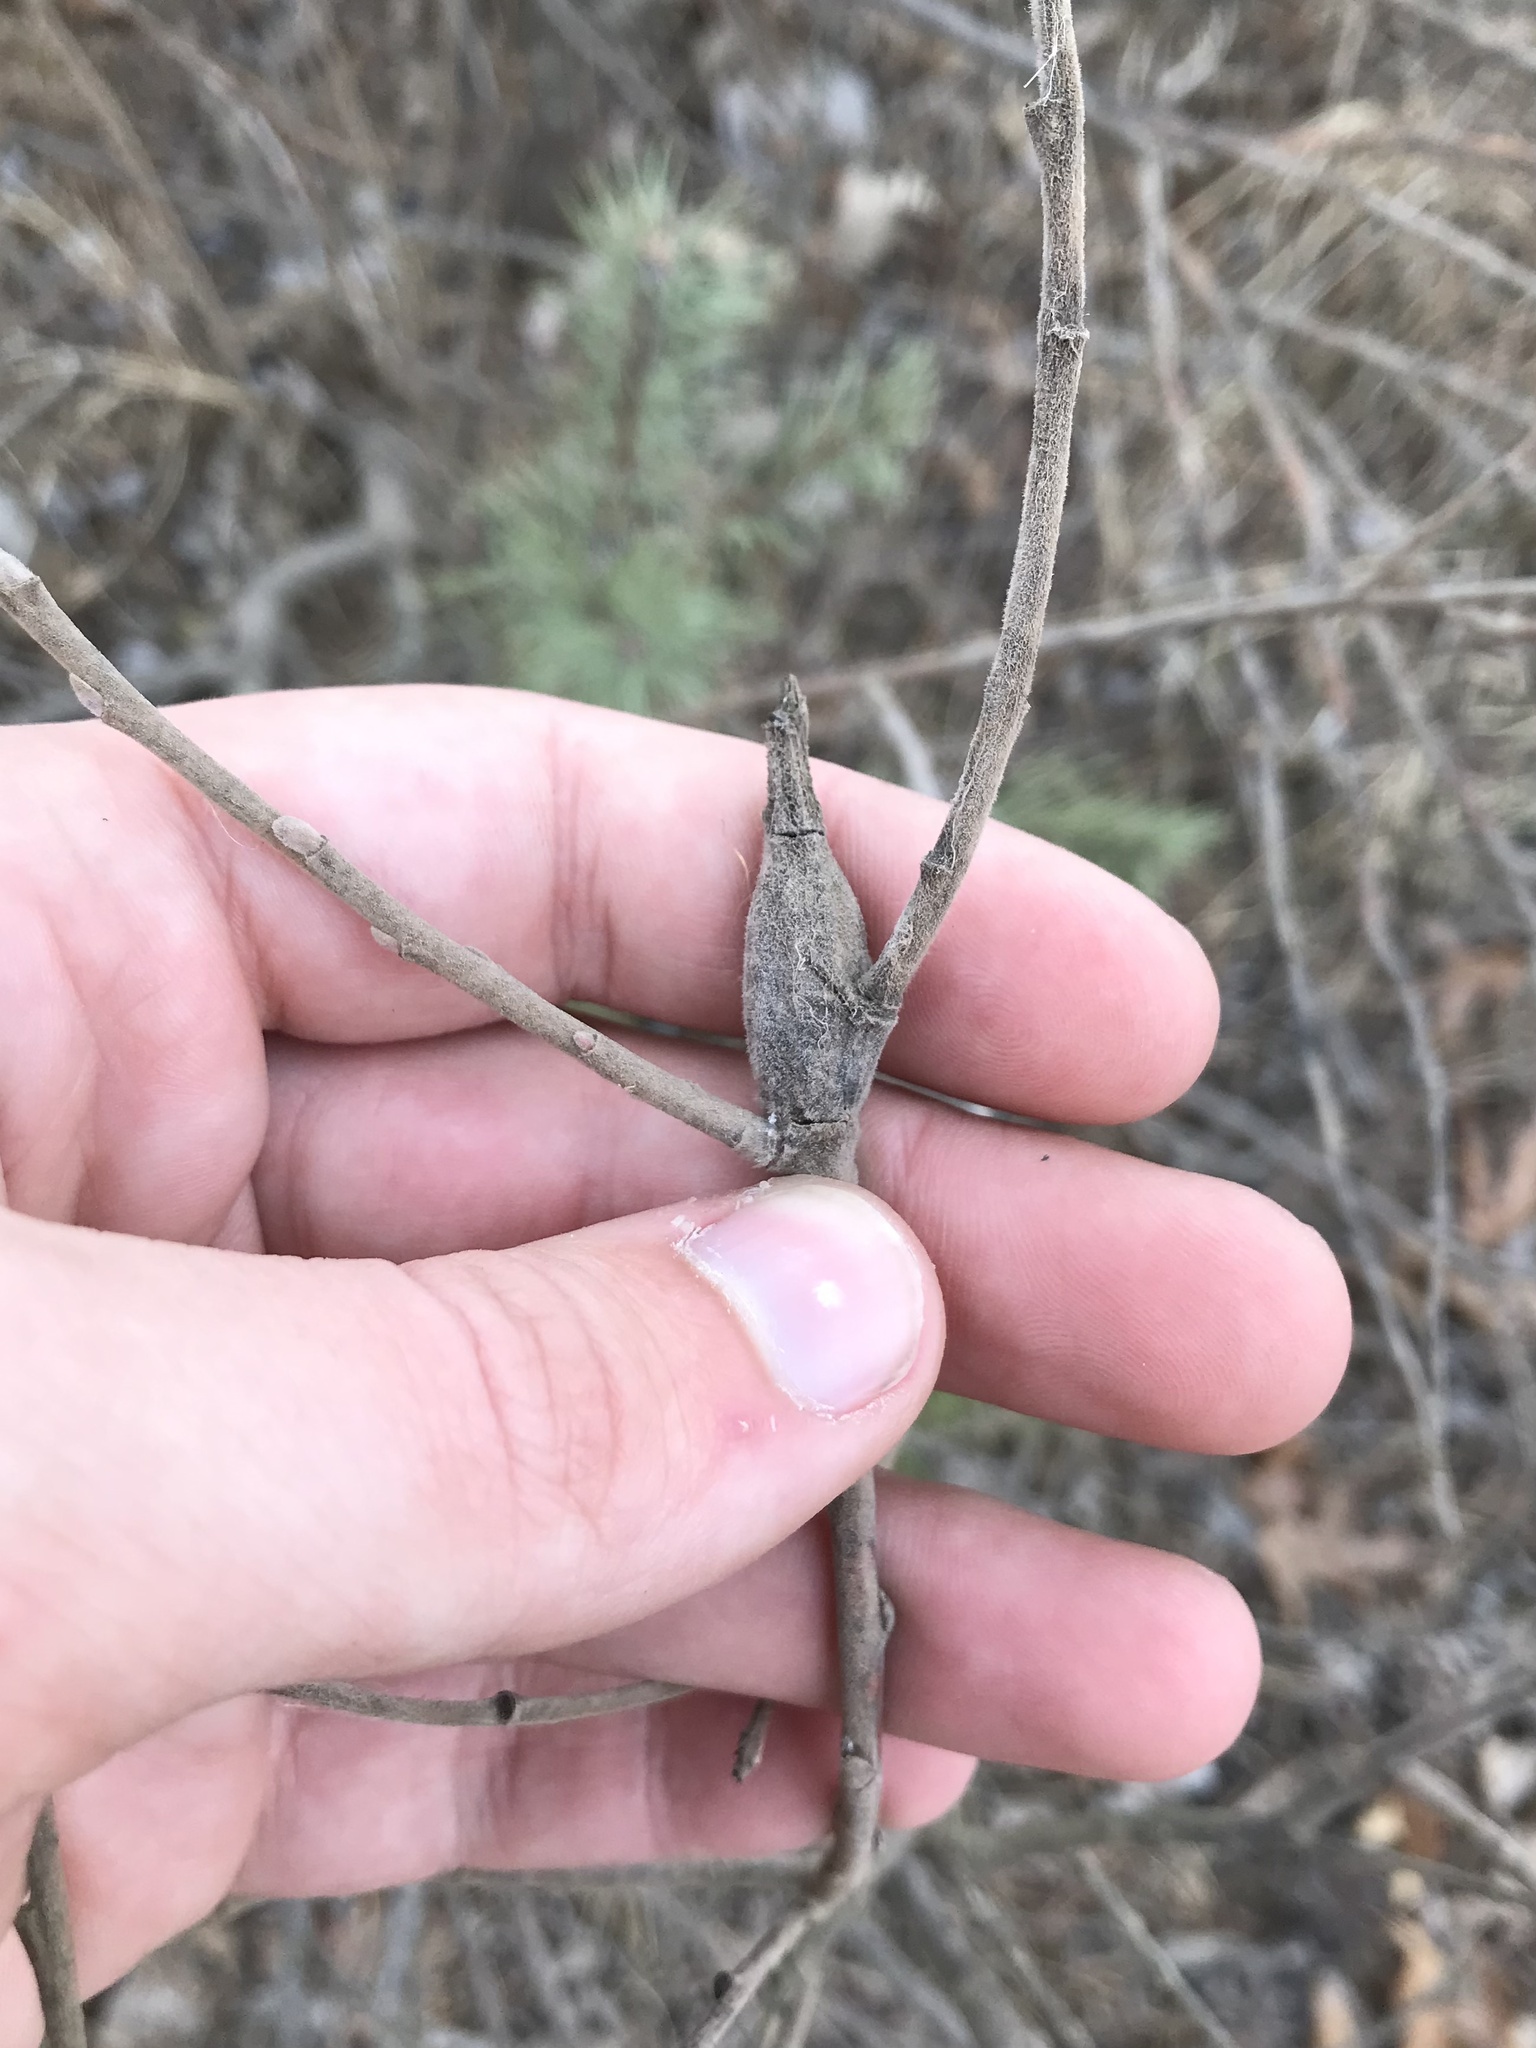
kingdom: Animalia
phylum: Arthropoda
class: Insecta
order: Diptera
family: Cecidomyiidae
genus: Thecodiplosis
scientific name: Thecodiplosis pinirigidae
